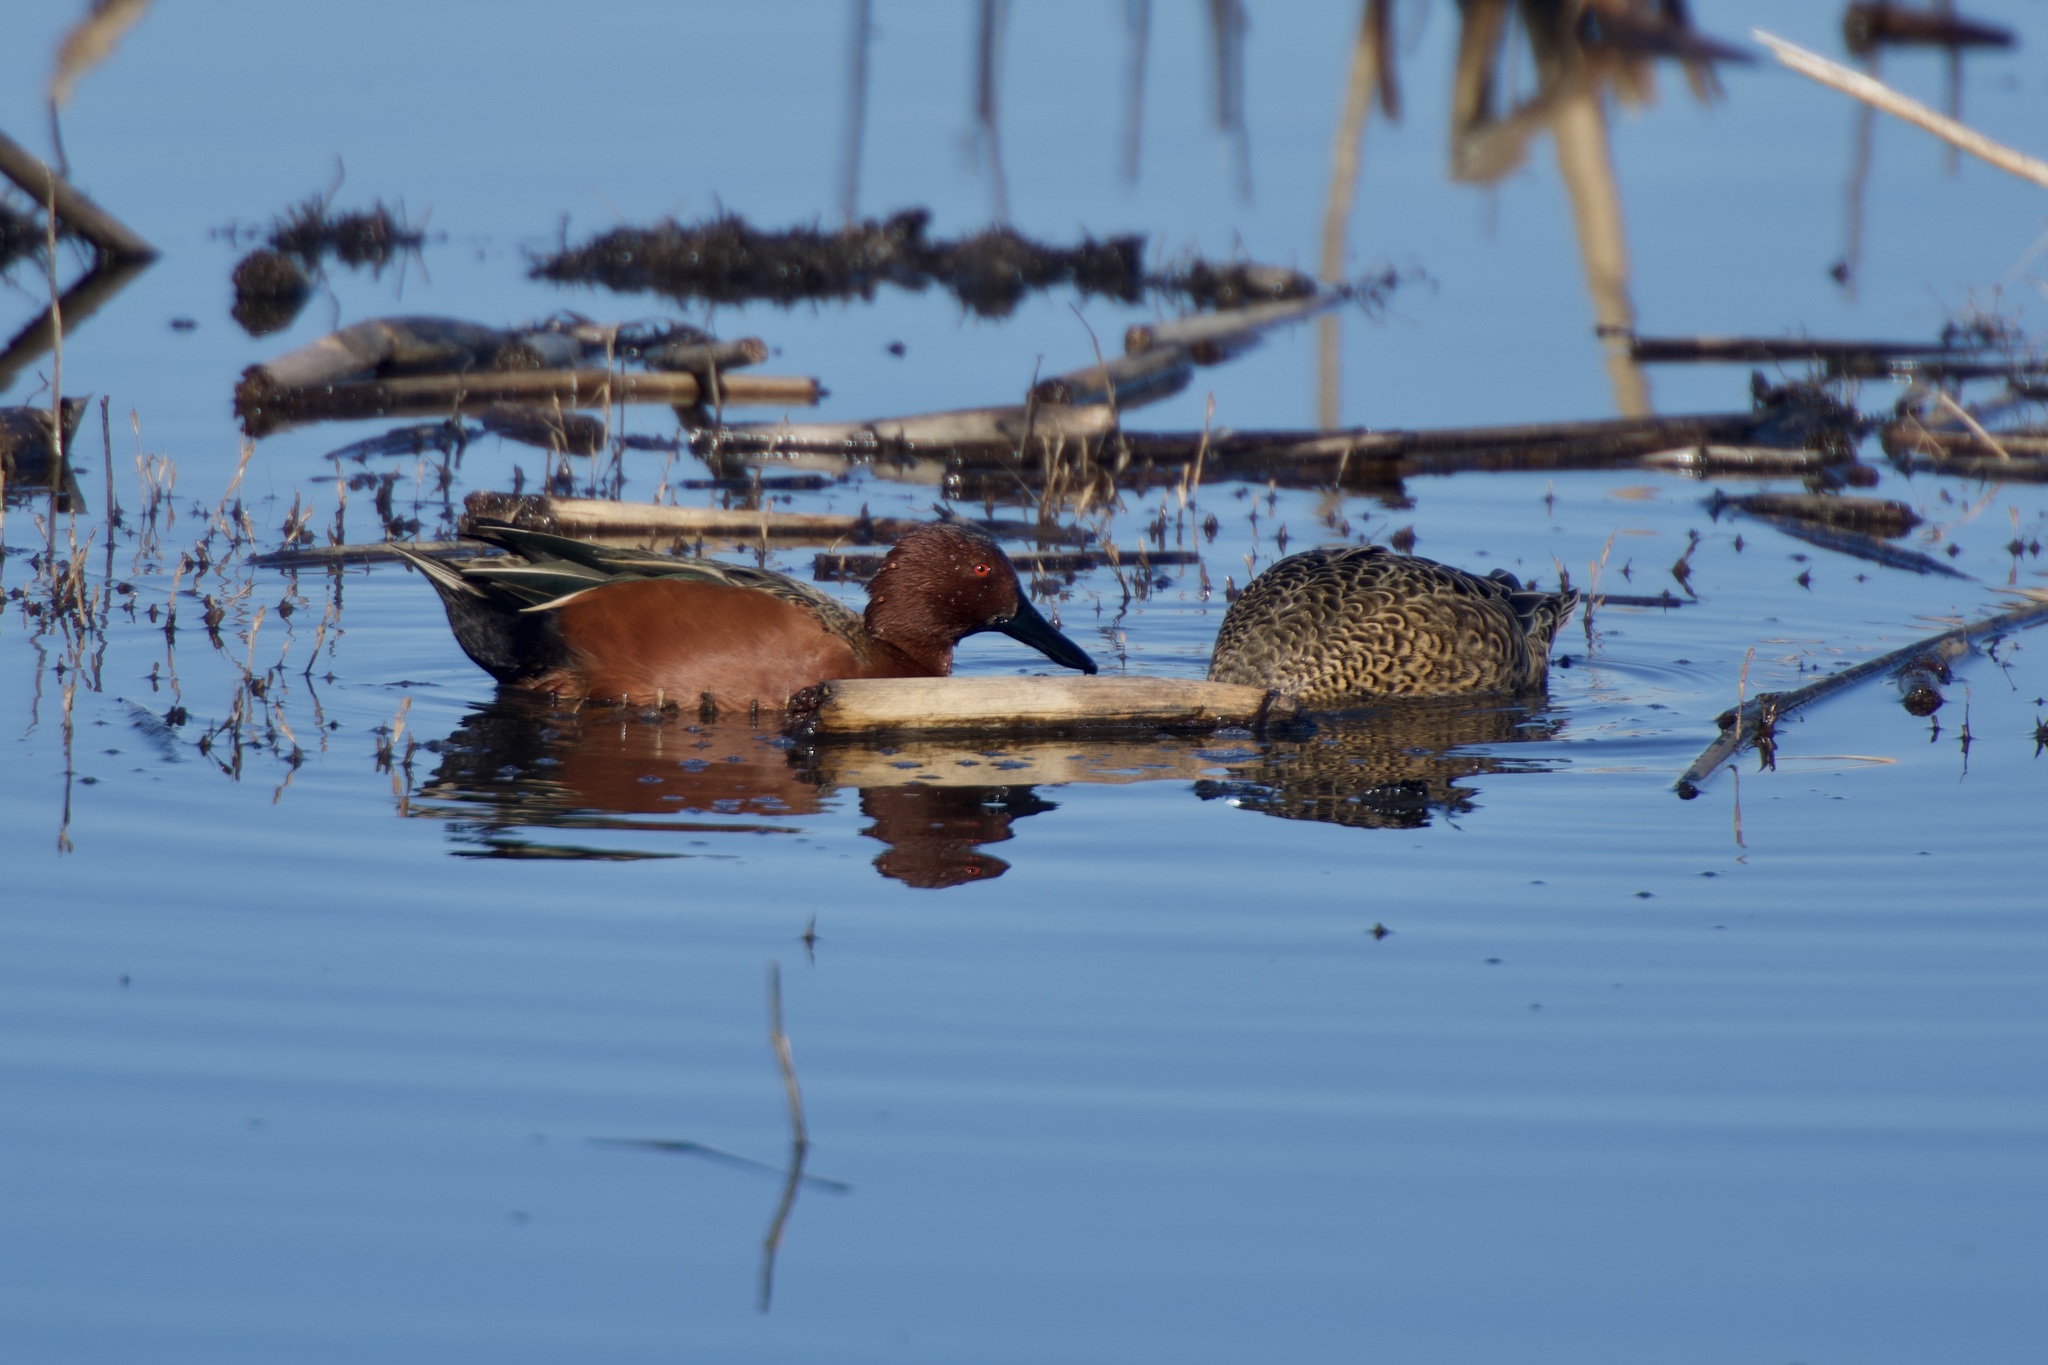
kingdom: Animalia
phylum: Chordata
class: Aves
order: Anseriformes
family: Anatidae
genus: Spatula
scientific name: Spatula cyanoptera
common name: Cinnamon teal
